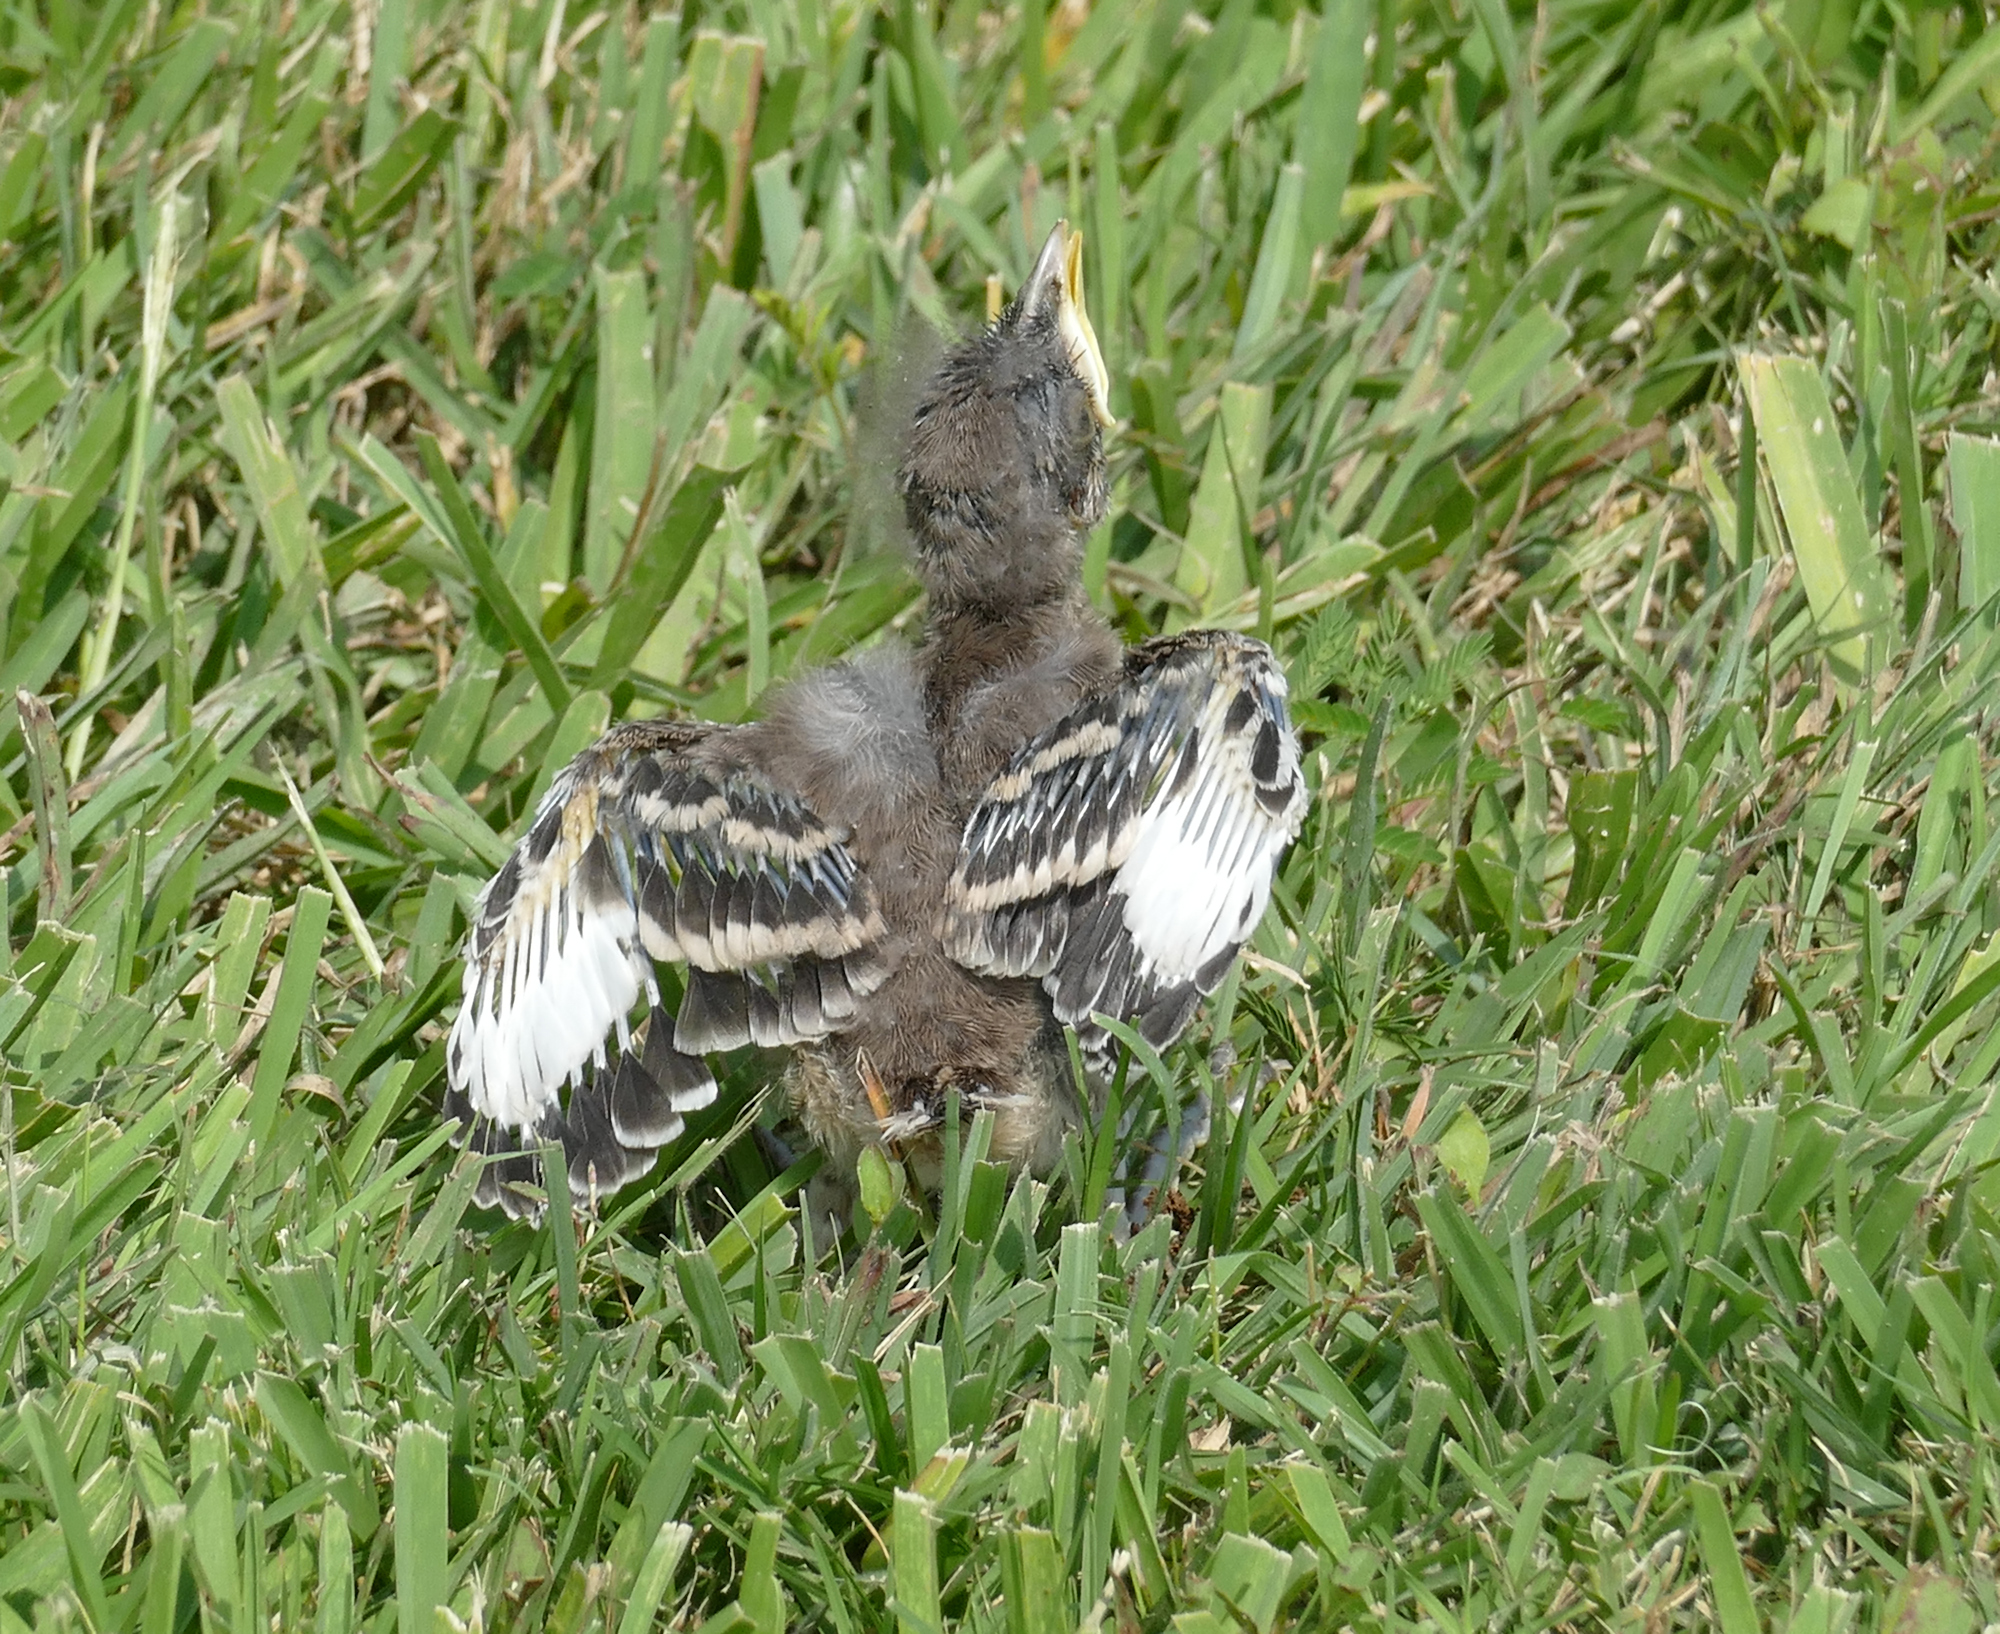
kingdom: Animalia
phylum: Chordata
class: Aves
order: Passeriformes
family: Mimidae
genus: Mimus
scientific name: Mimus polyglottos
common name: Northern mockingbird
